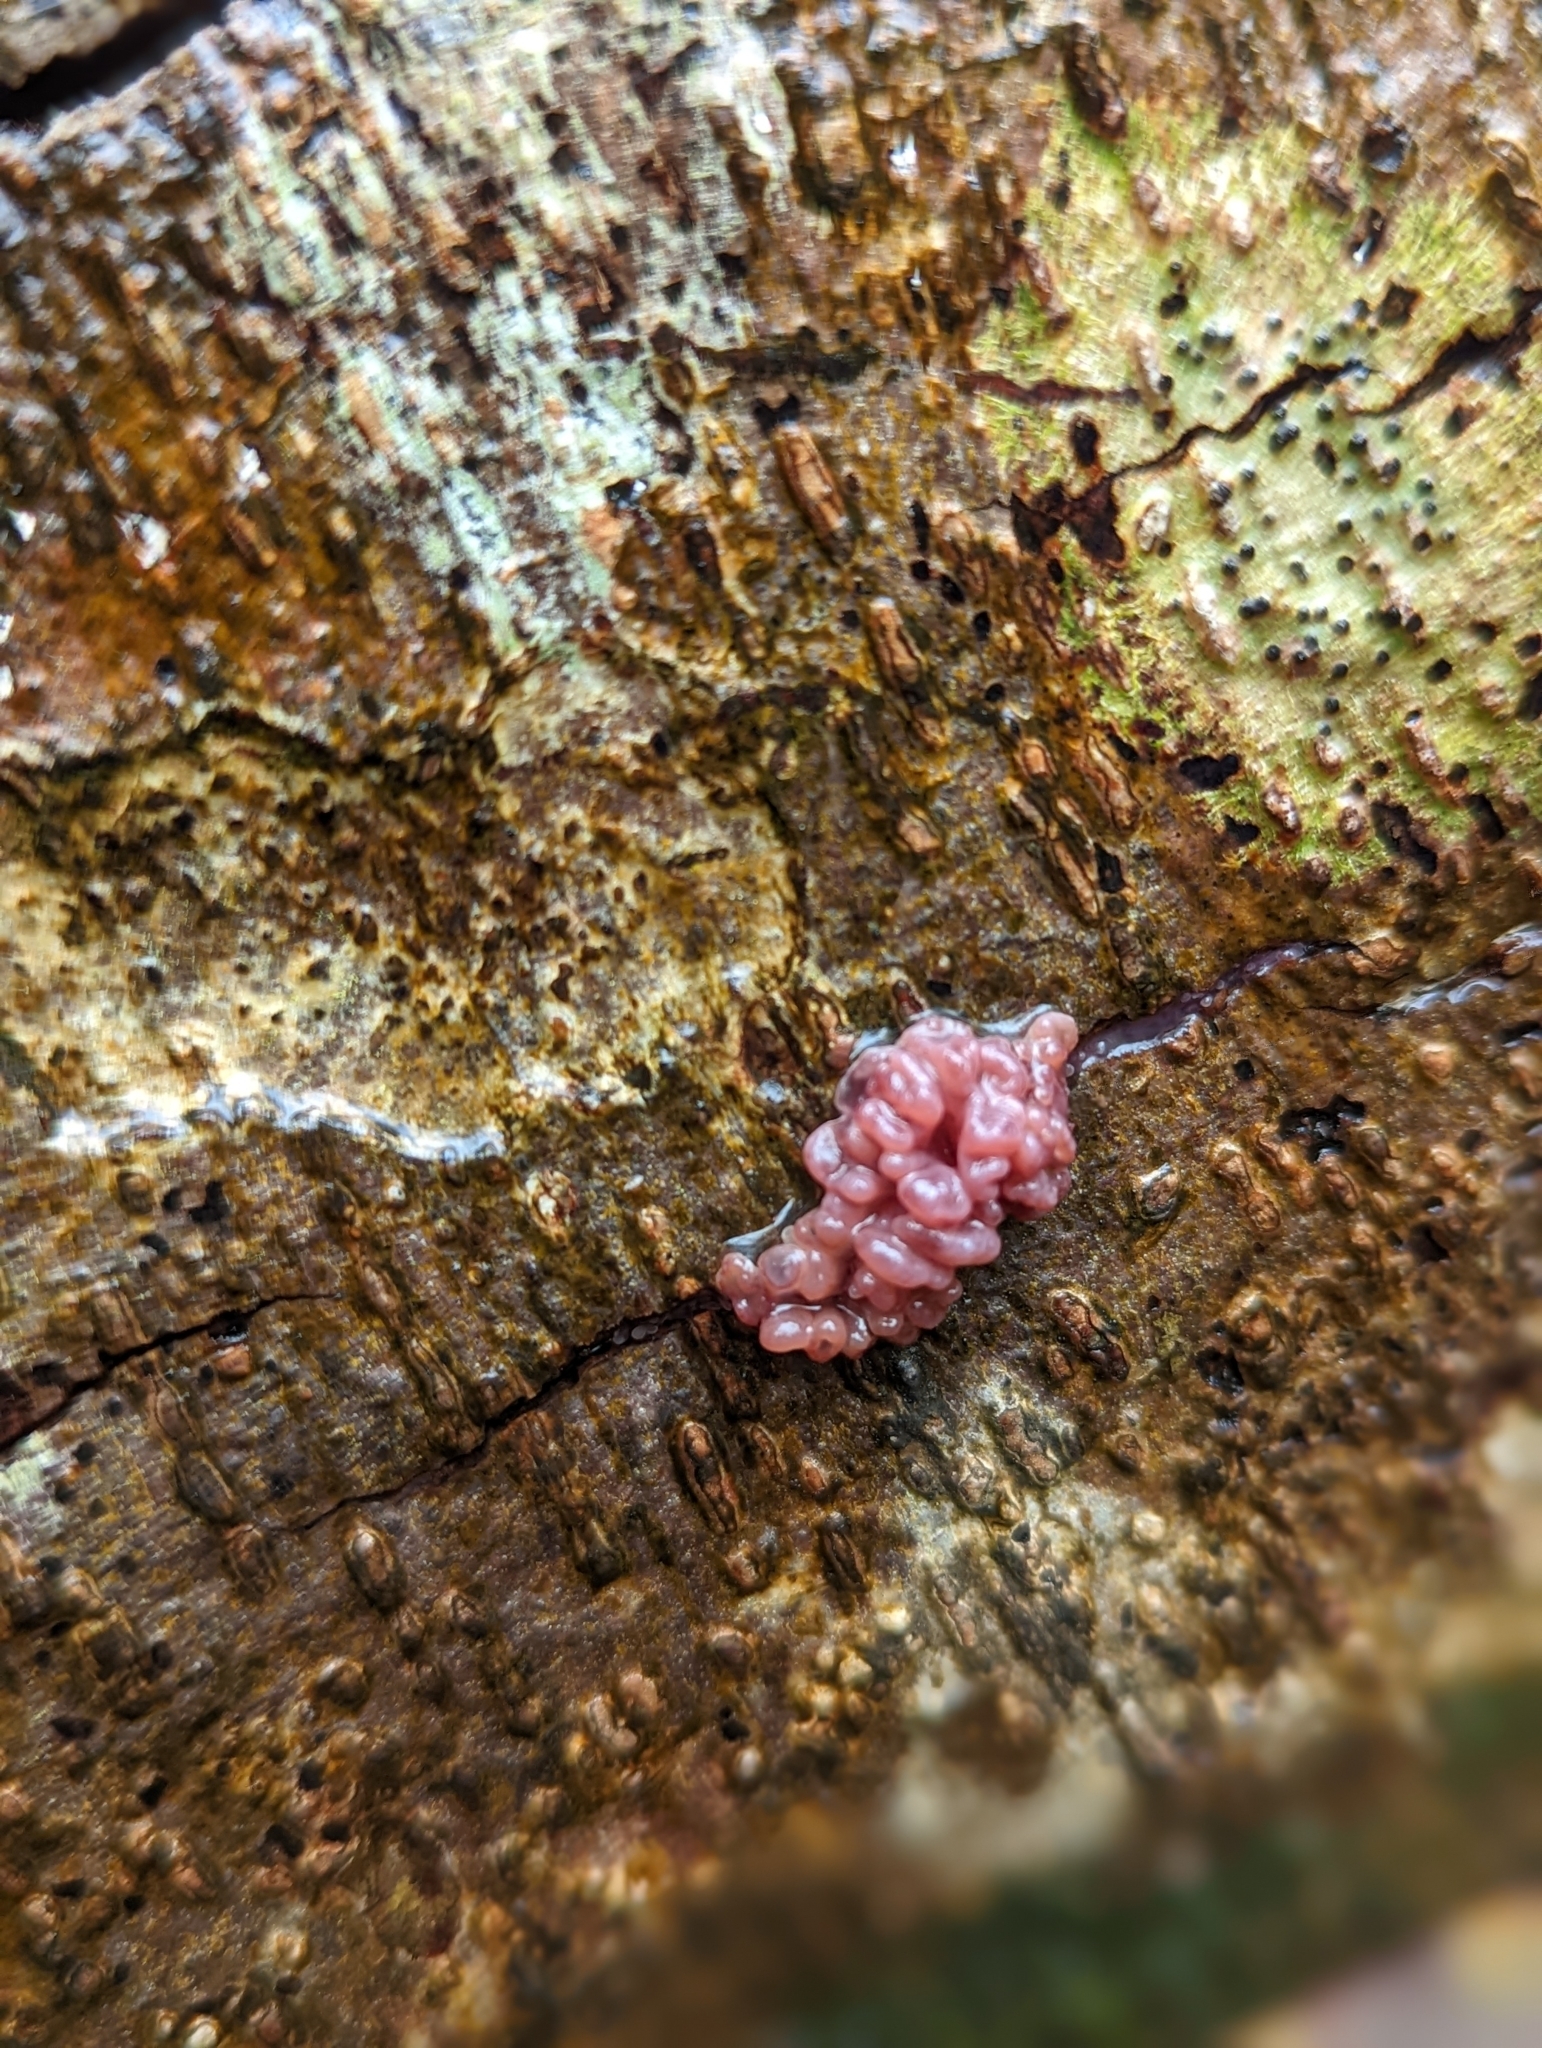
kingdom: Fungi
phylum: Ascomycota
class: Leotiomycetes
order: Helotiales
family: Gelatinodiscaceae
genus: Ascocoryne
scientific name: Ascocoryne sarcoides
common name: Purple jellydisc
